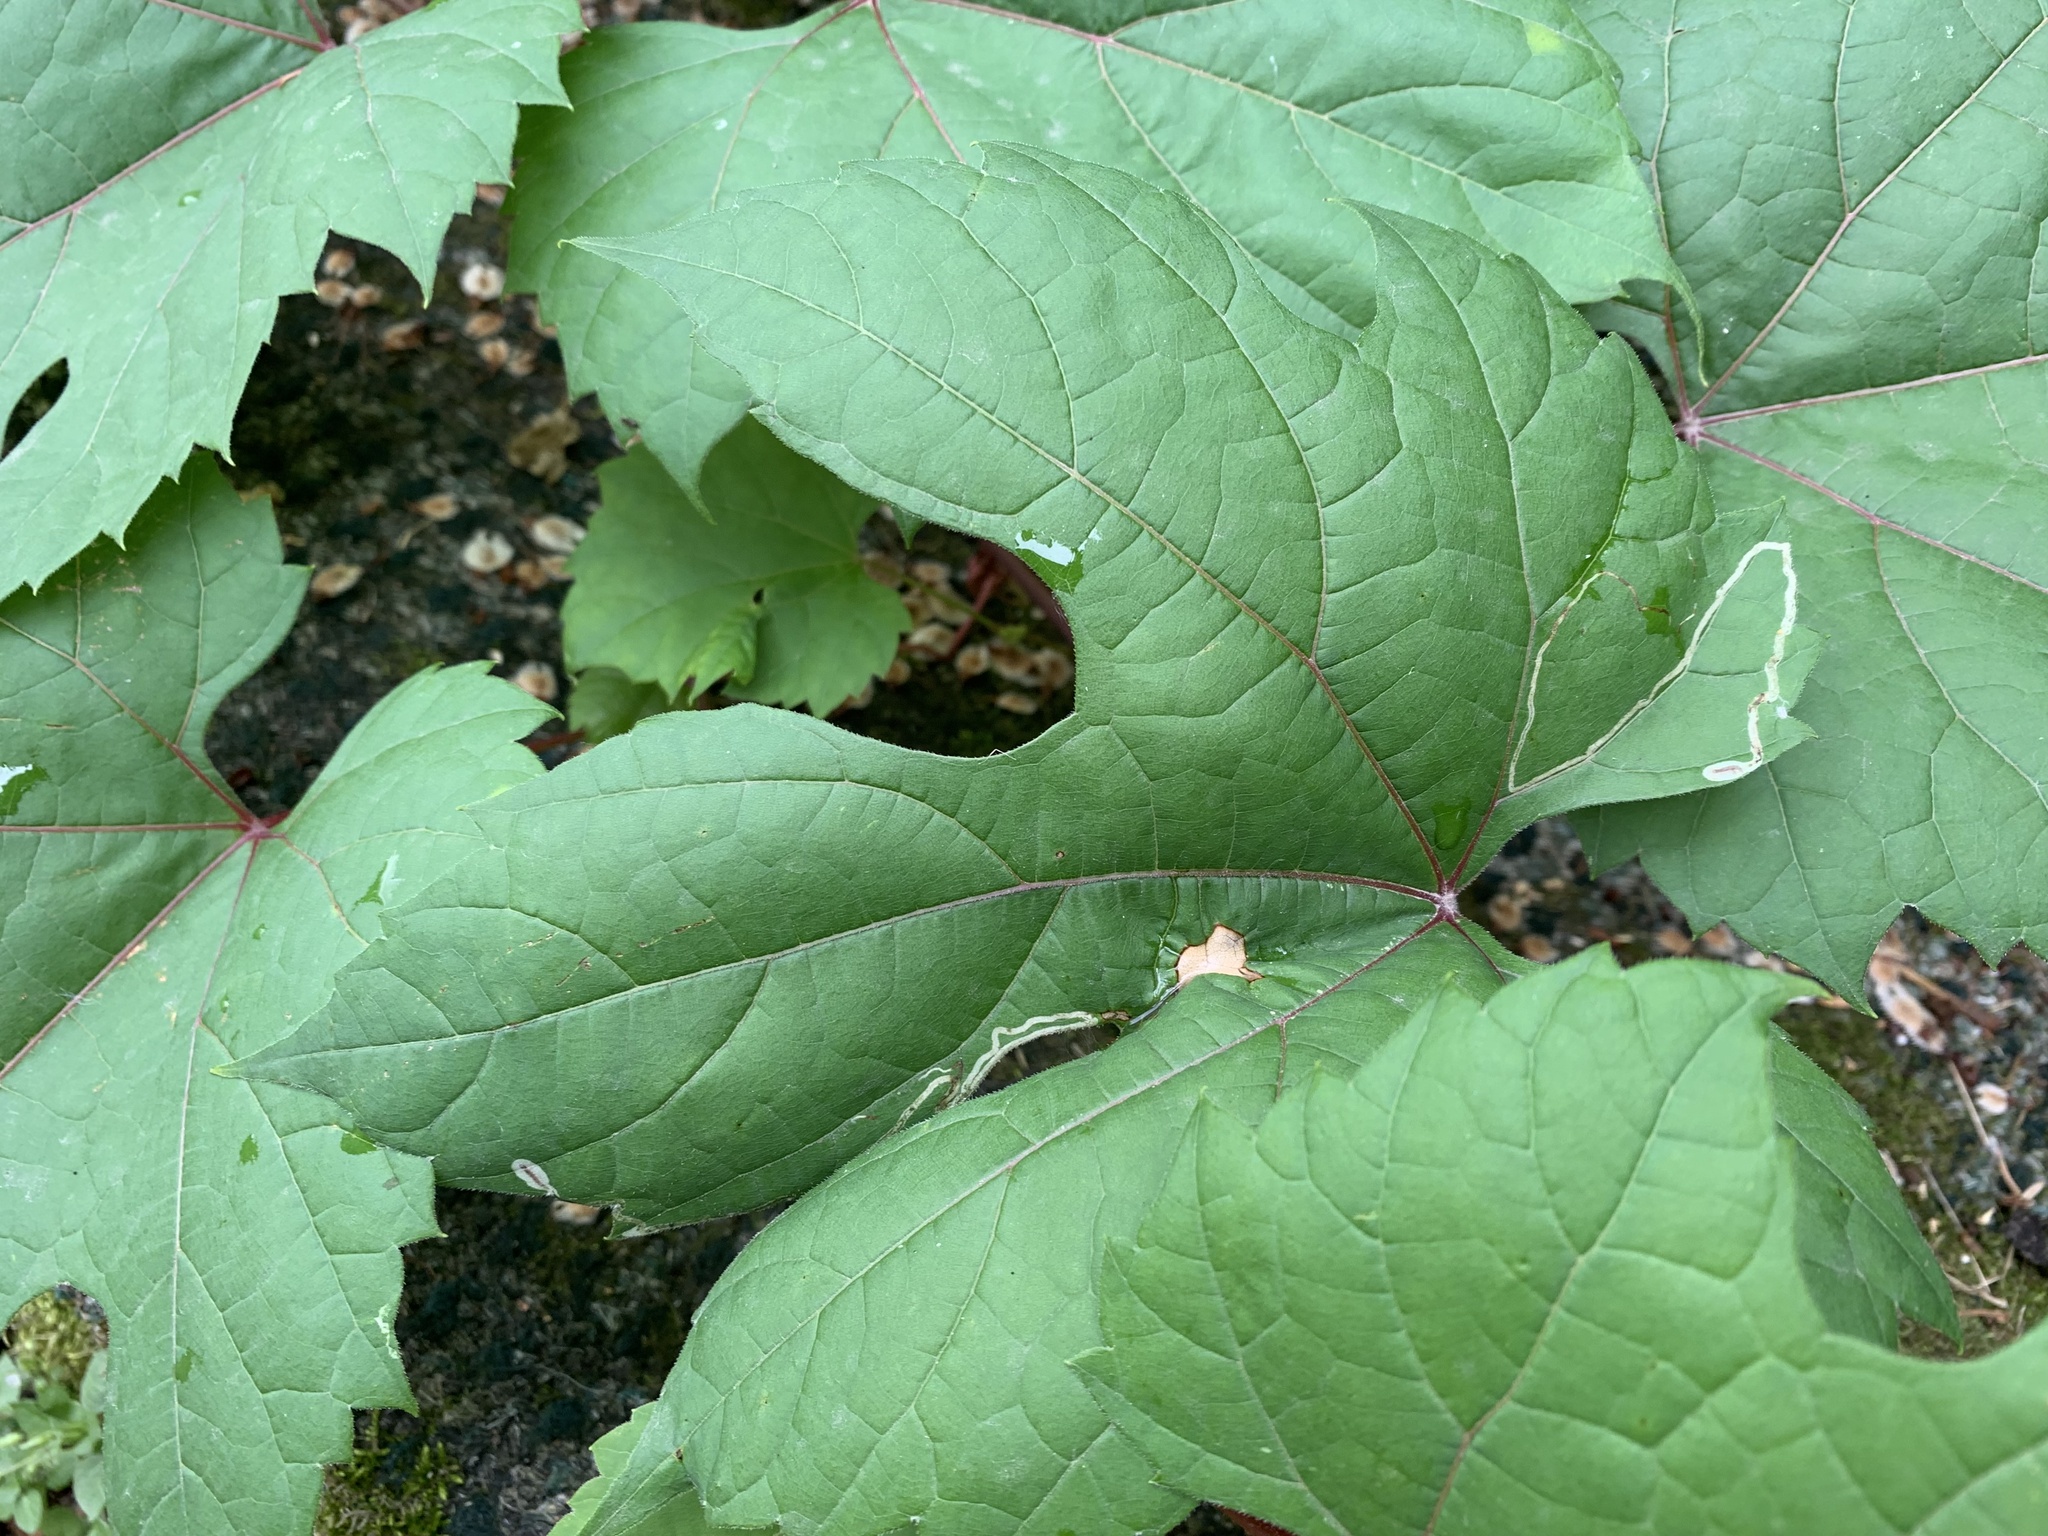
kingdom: Animalia
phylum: Arthropoda
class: Insecta
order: Lepidoptera
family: Gracillariidae
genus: Phyllocnistis
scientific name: Phyllocnistis vitifoliella
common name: Grape leaf-miner moth
